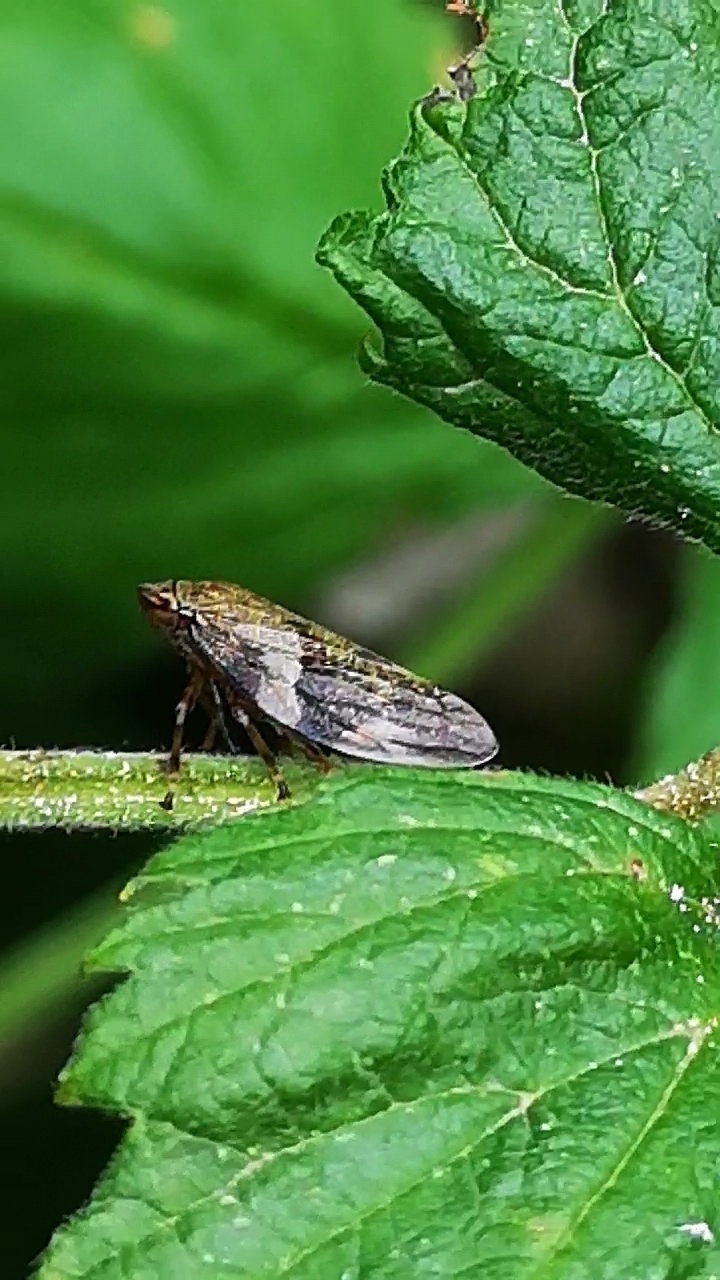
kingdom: Animalia
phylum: Arthropoda
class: Insecta
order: Hemiptera
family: Aphrophoridae
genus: Aphrophora
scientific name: Aphrophora alni
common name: European alder spittlebug
